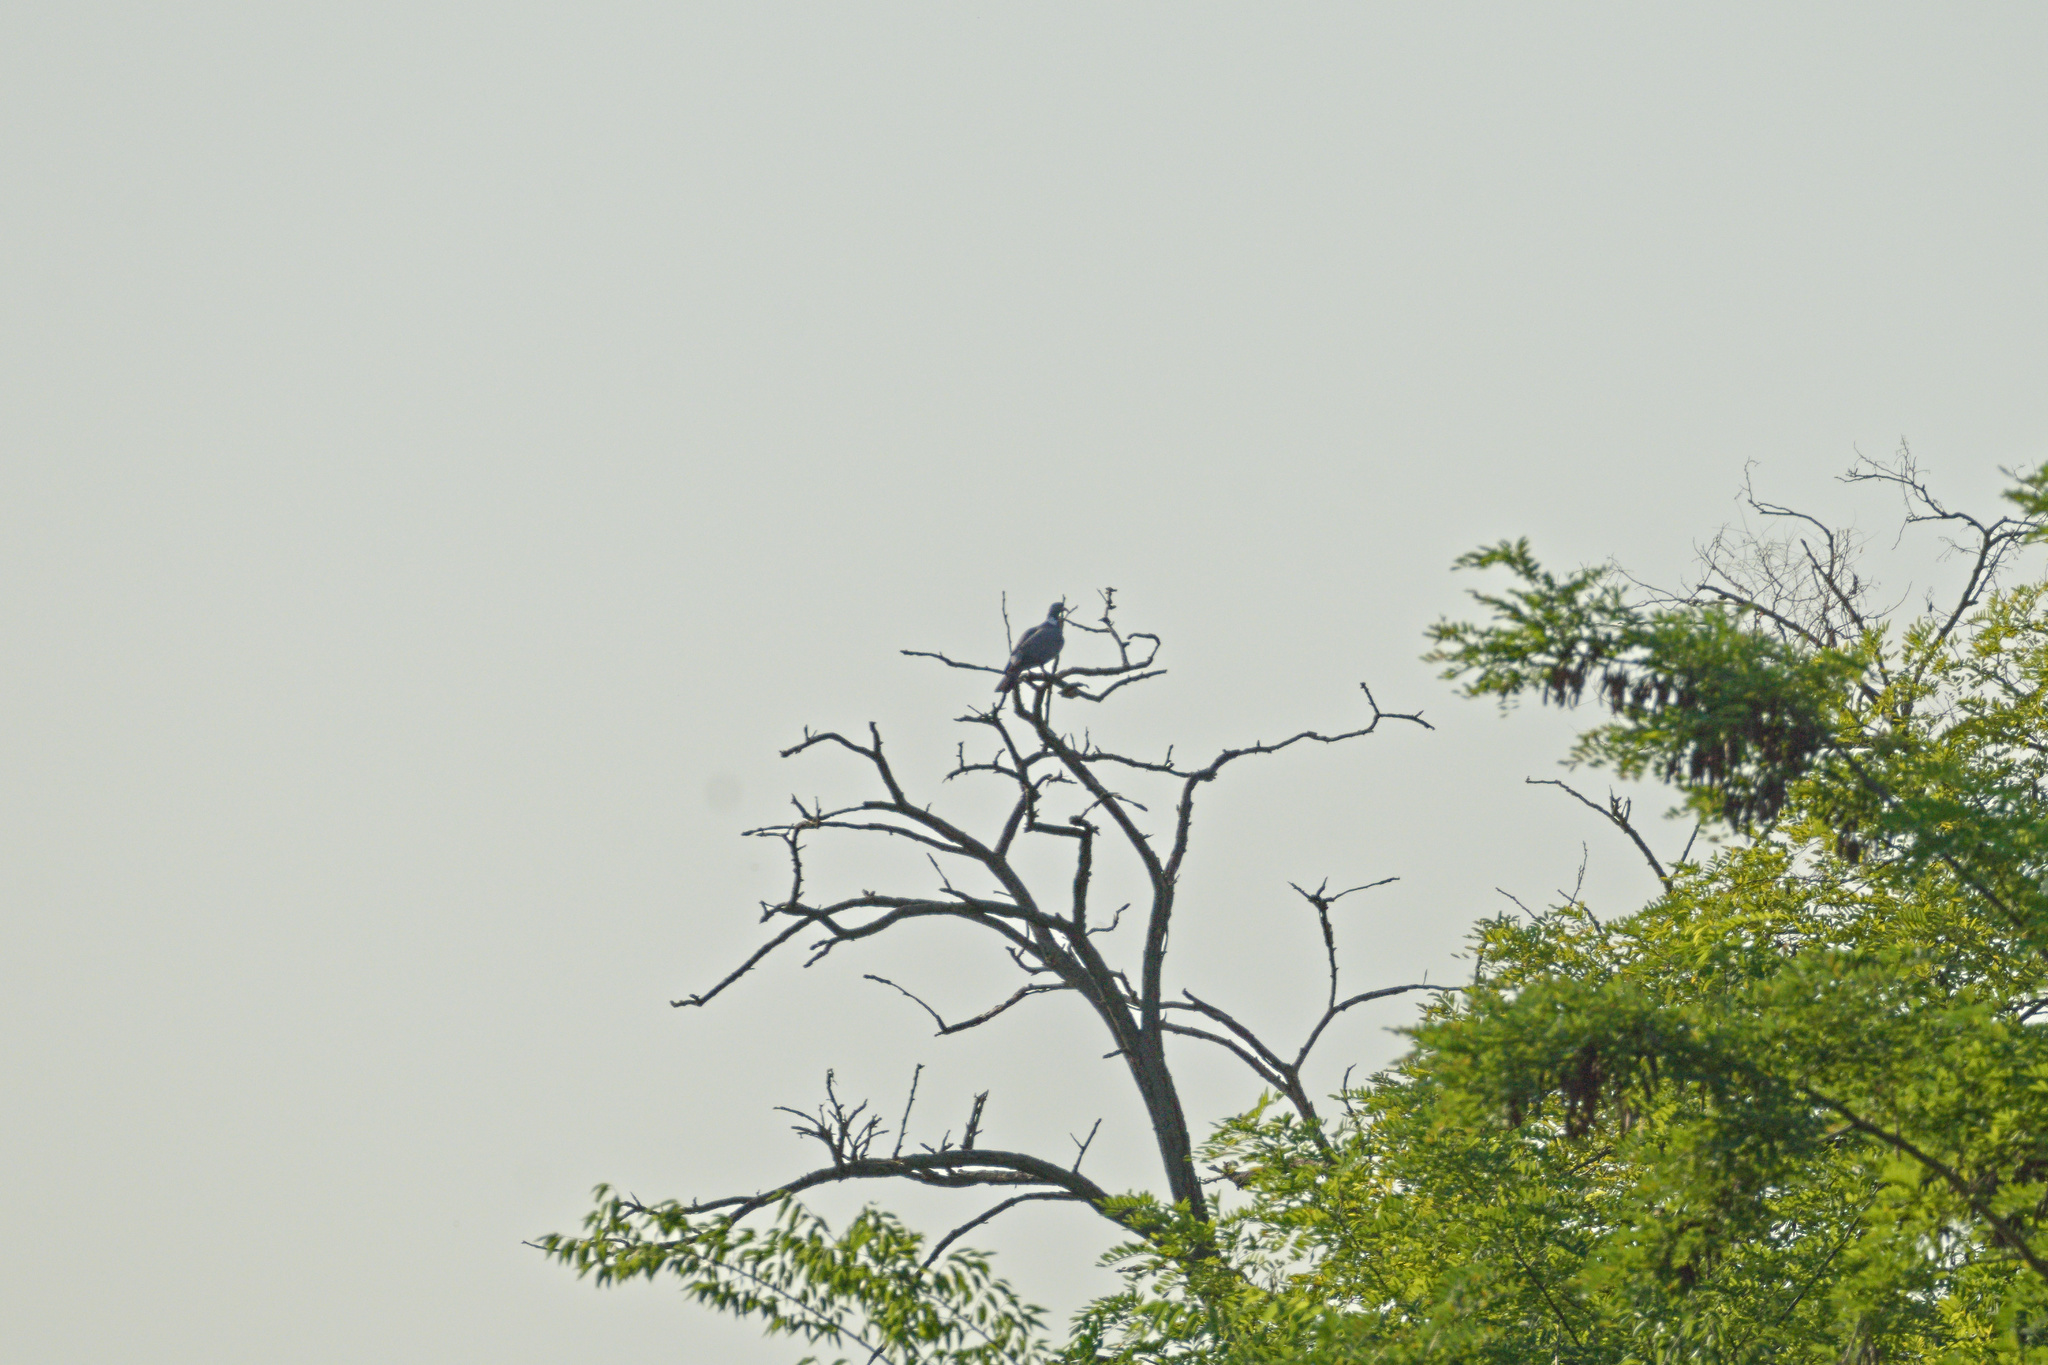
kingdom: Animalia
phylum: Chordata
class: Aves
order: Columbiformes
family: Columbidae
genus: Columba
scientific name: Columba palumbus
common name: Common wood pigeon
